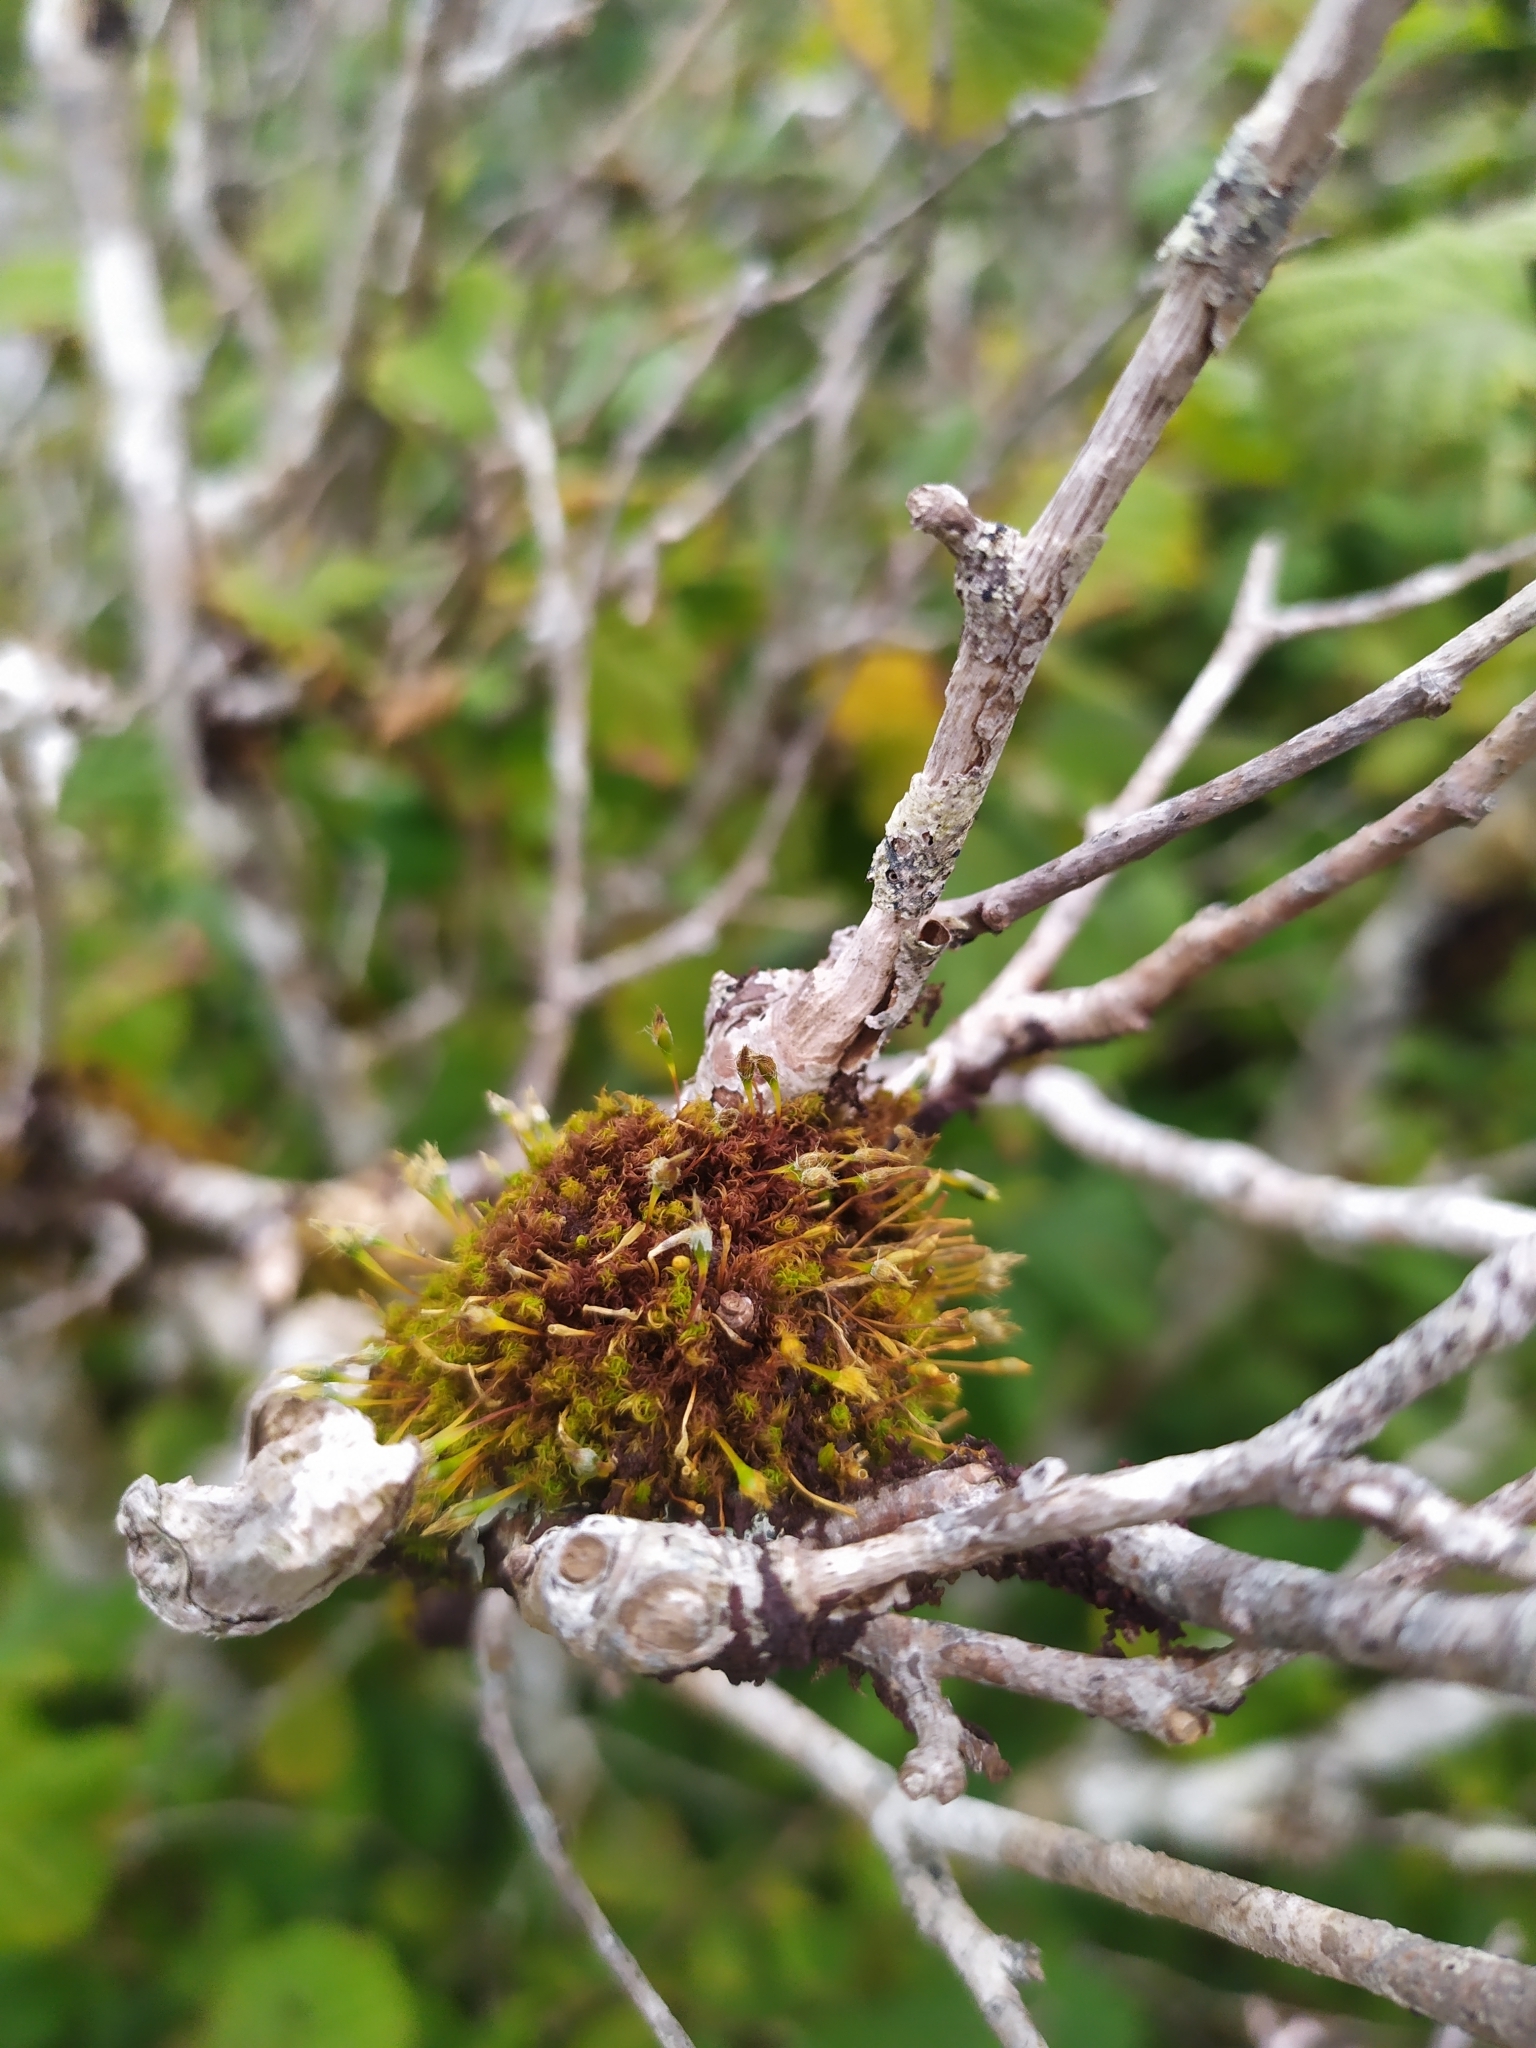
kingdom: Plantae
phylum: Bryophyta
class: Bryopsida
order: Orthotrichales
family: Orthotrichaceae
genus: Ulota
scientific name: Ulota bruchii
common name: Bruch's pincushion
